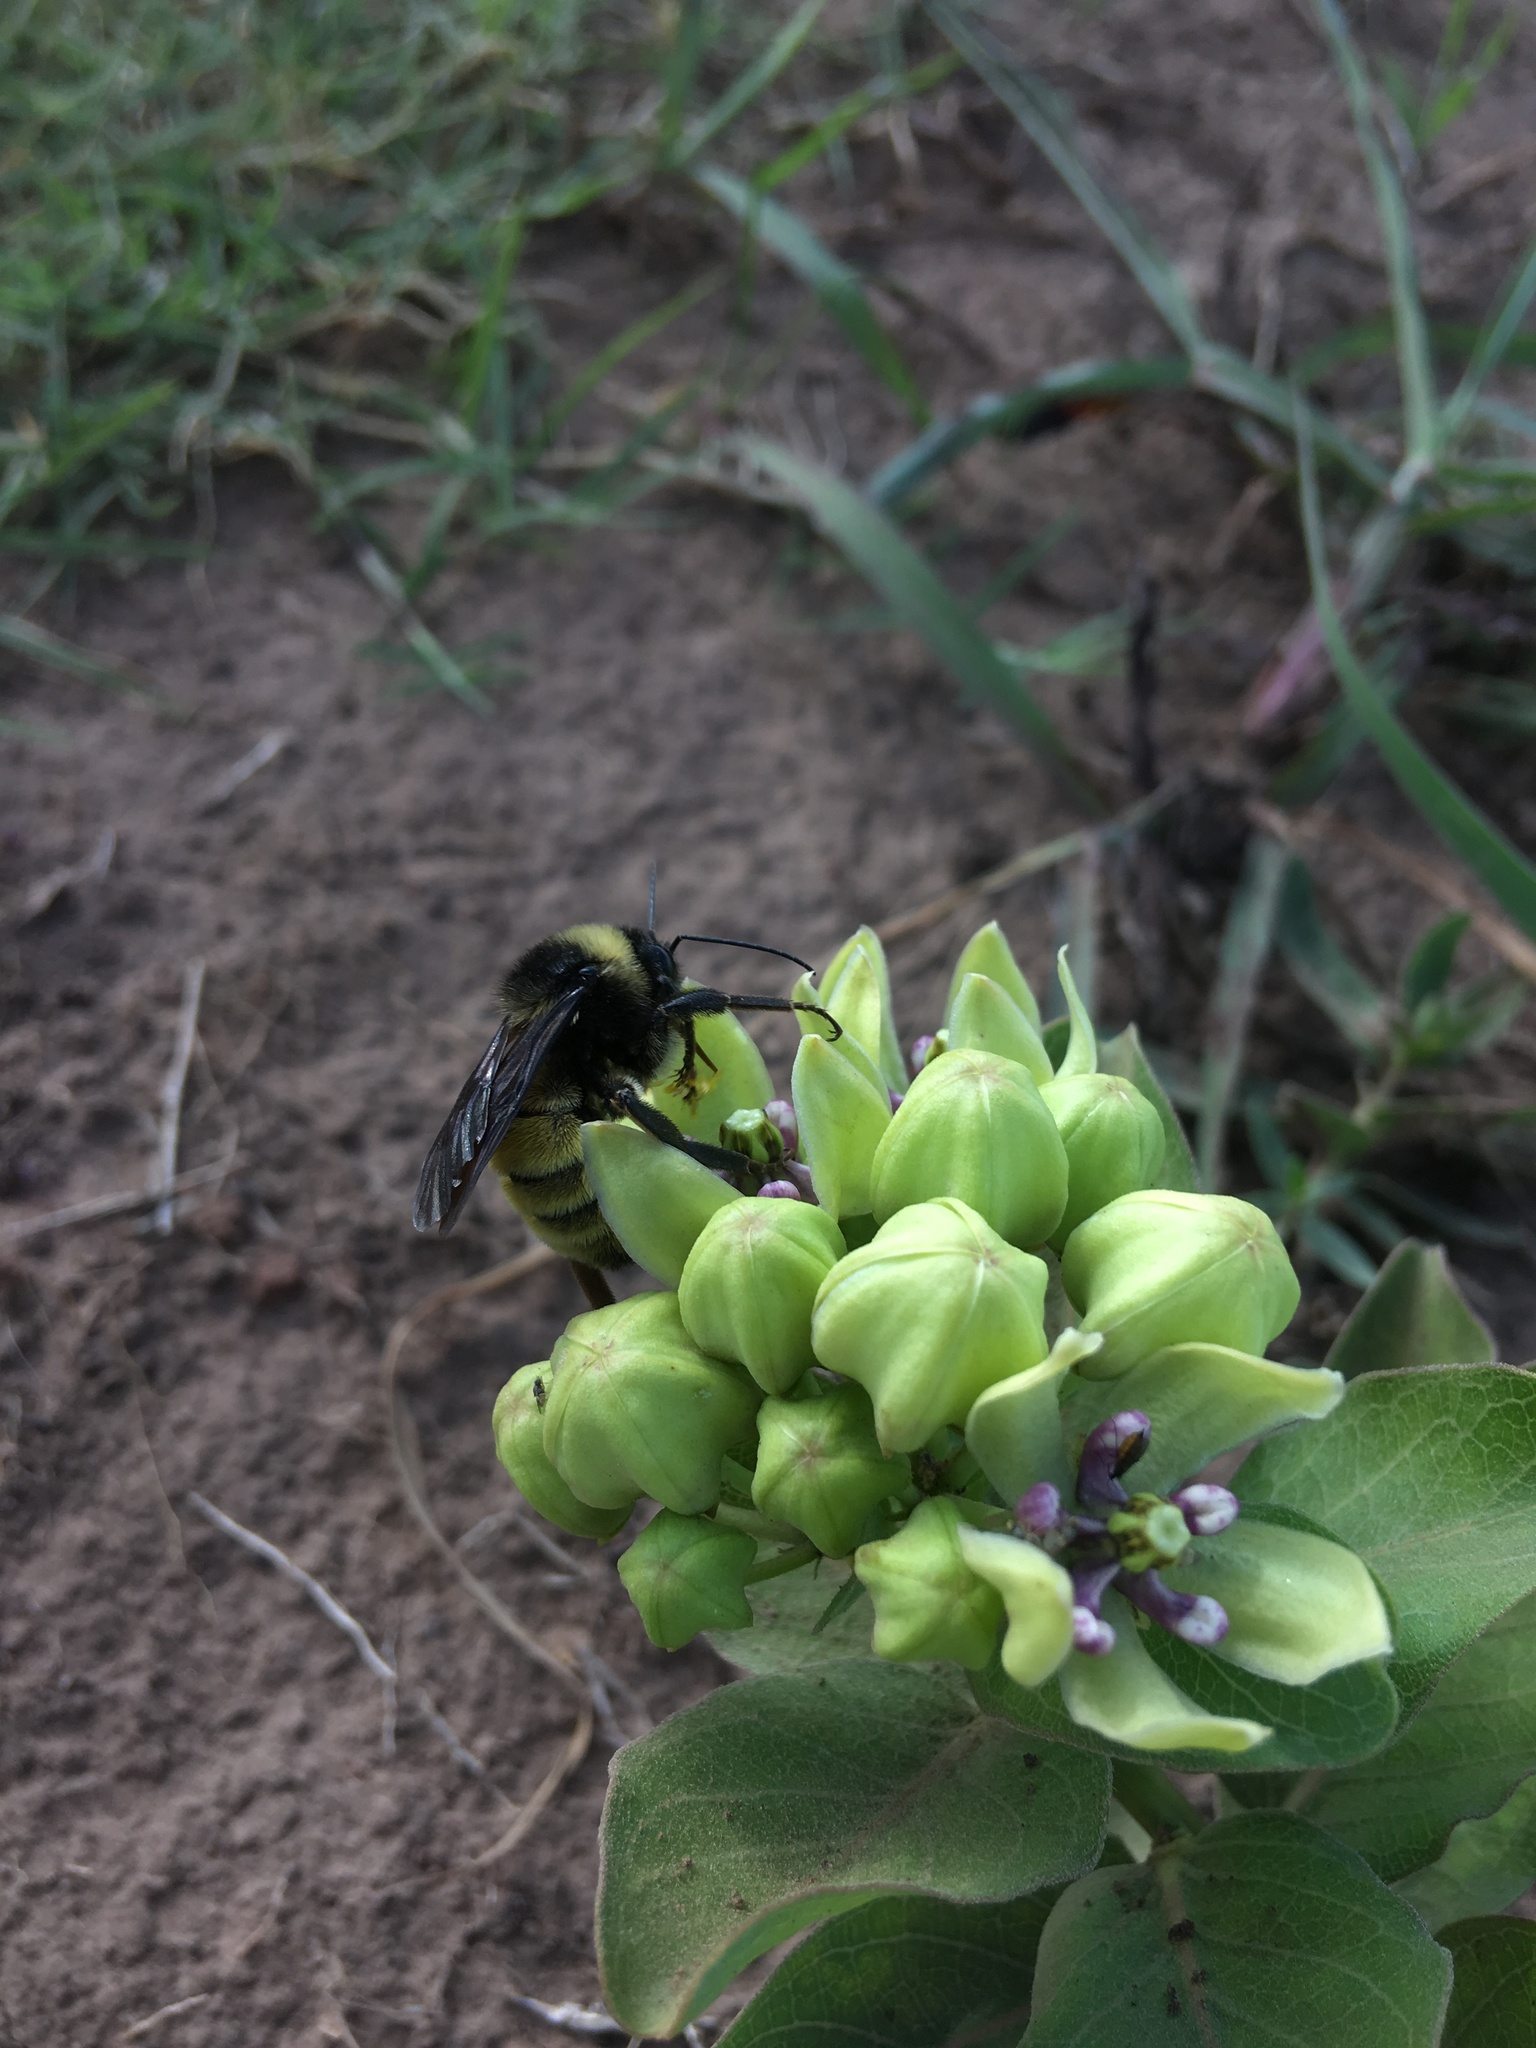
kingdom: Animalia
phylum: Arthropoda
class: Insecta
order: Hymenoptera
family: Apidae
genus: Bombus
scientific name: Bombus pensylvanicus
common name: Bumble bee
